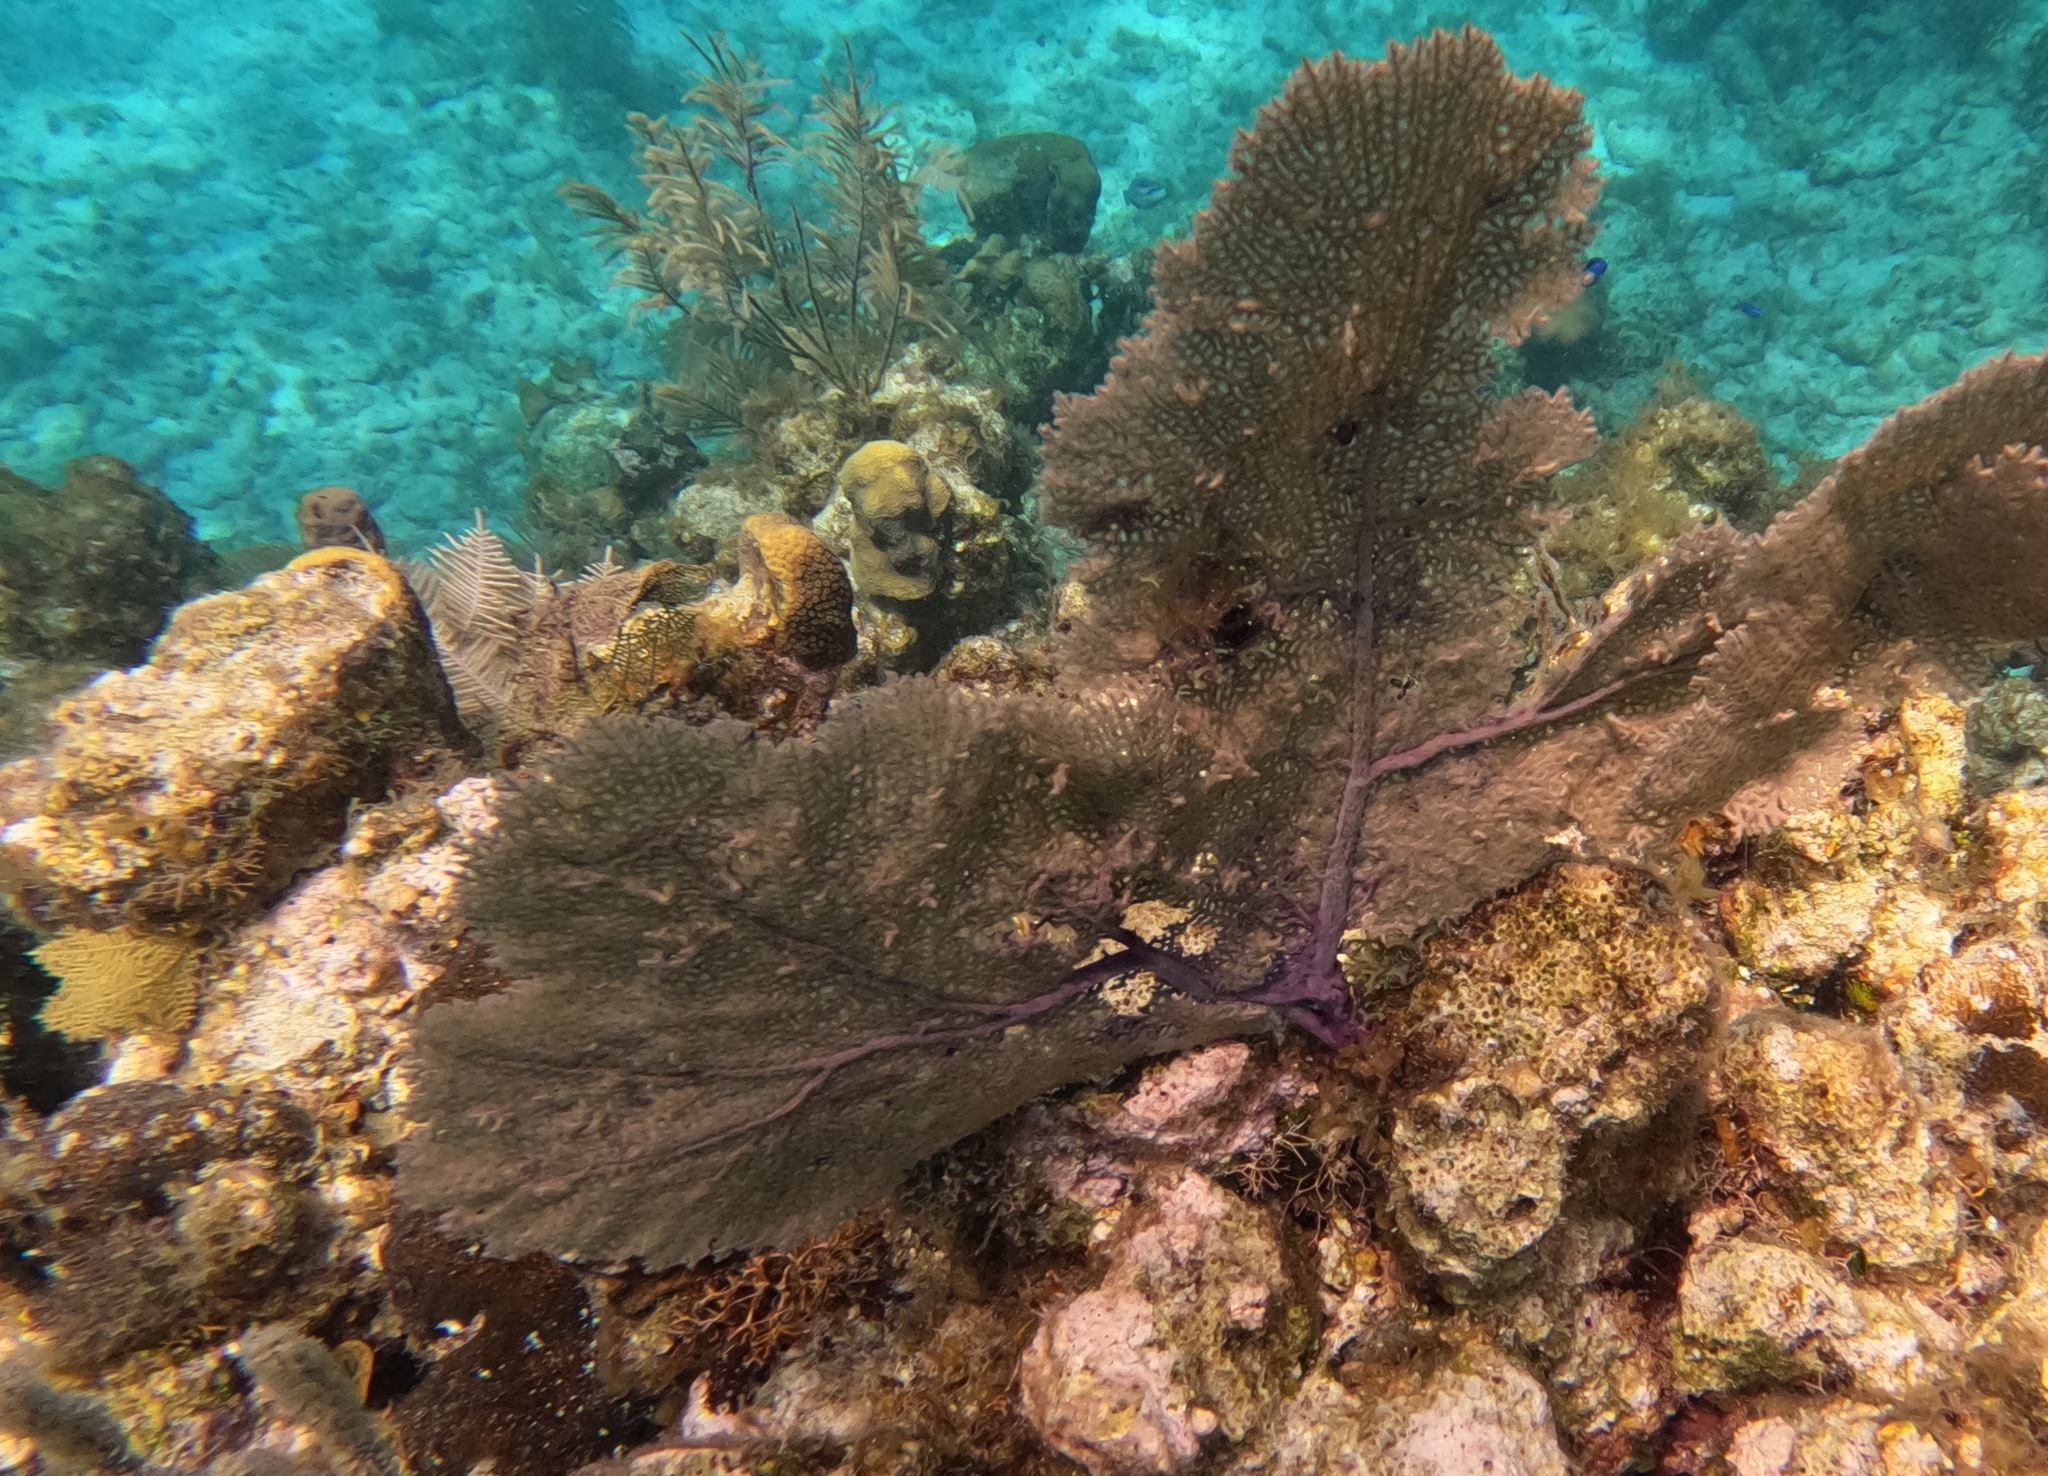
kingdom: Animalia
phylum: Cnidaria
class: Anthozoa
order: Malacalcyonacea
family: Gorgoniidae
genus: Gorgonia
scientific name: Gorgonia ventalina
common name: Common sea fan
